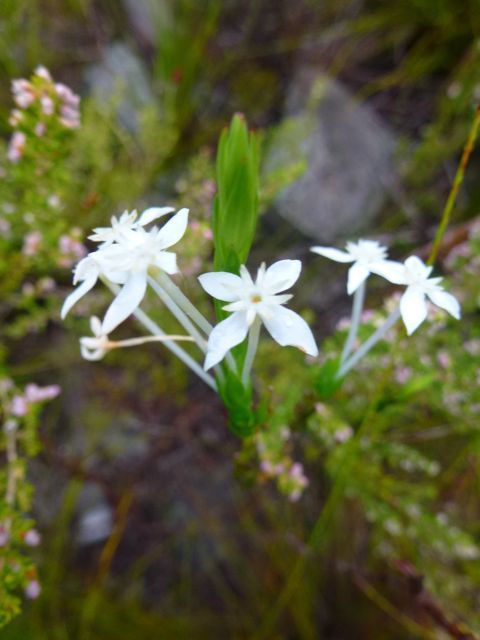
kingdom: Plantae
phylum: Tracheophyta
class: Magnoliopsida
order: Malvales
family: Thymelaeaceae
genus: Struthiola
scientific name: Struthiola myrsinites
